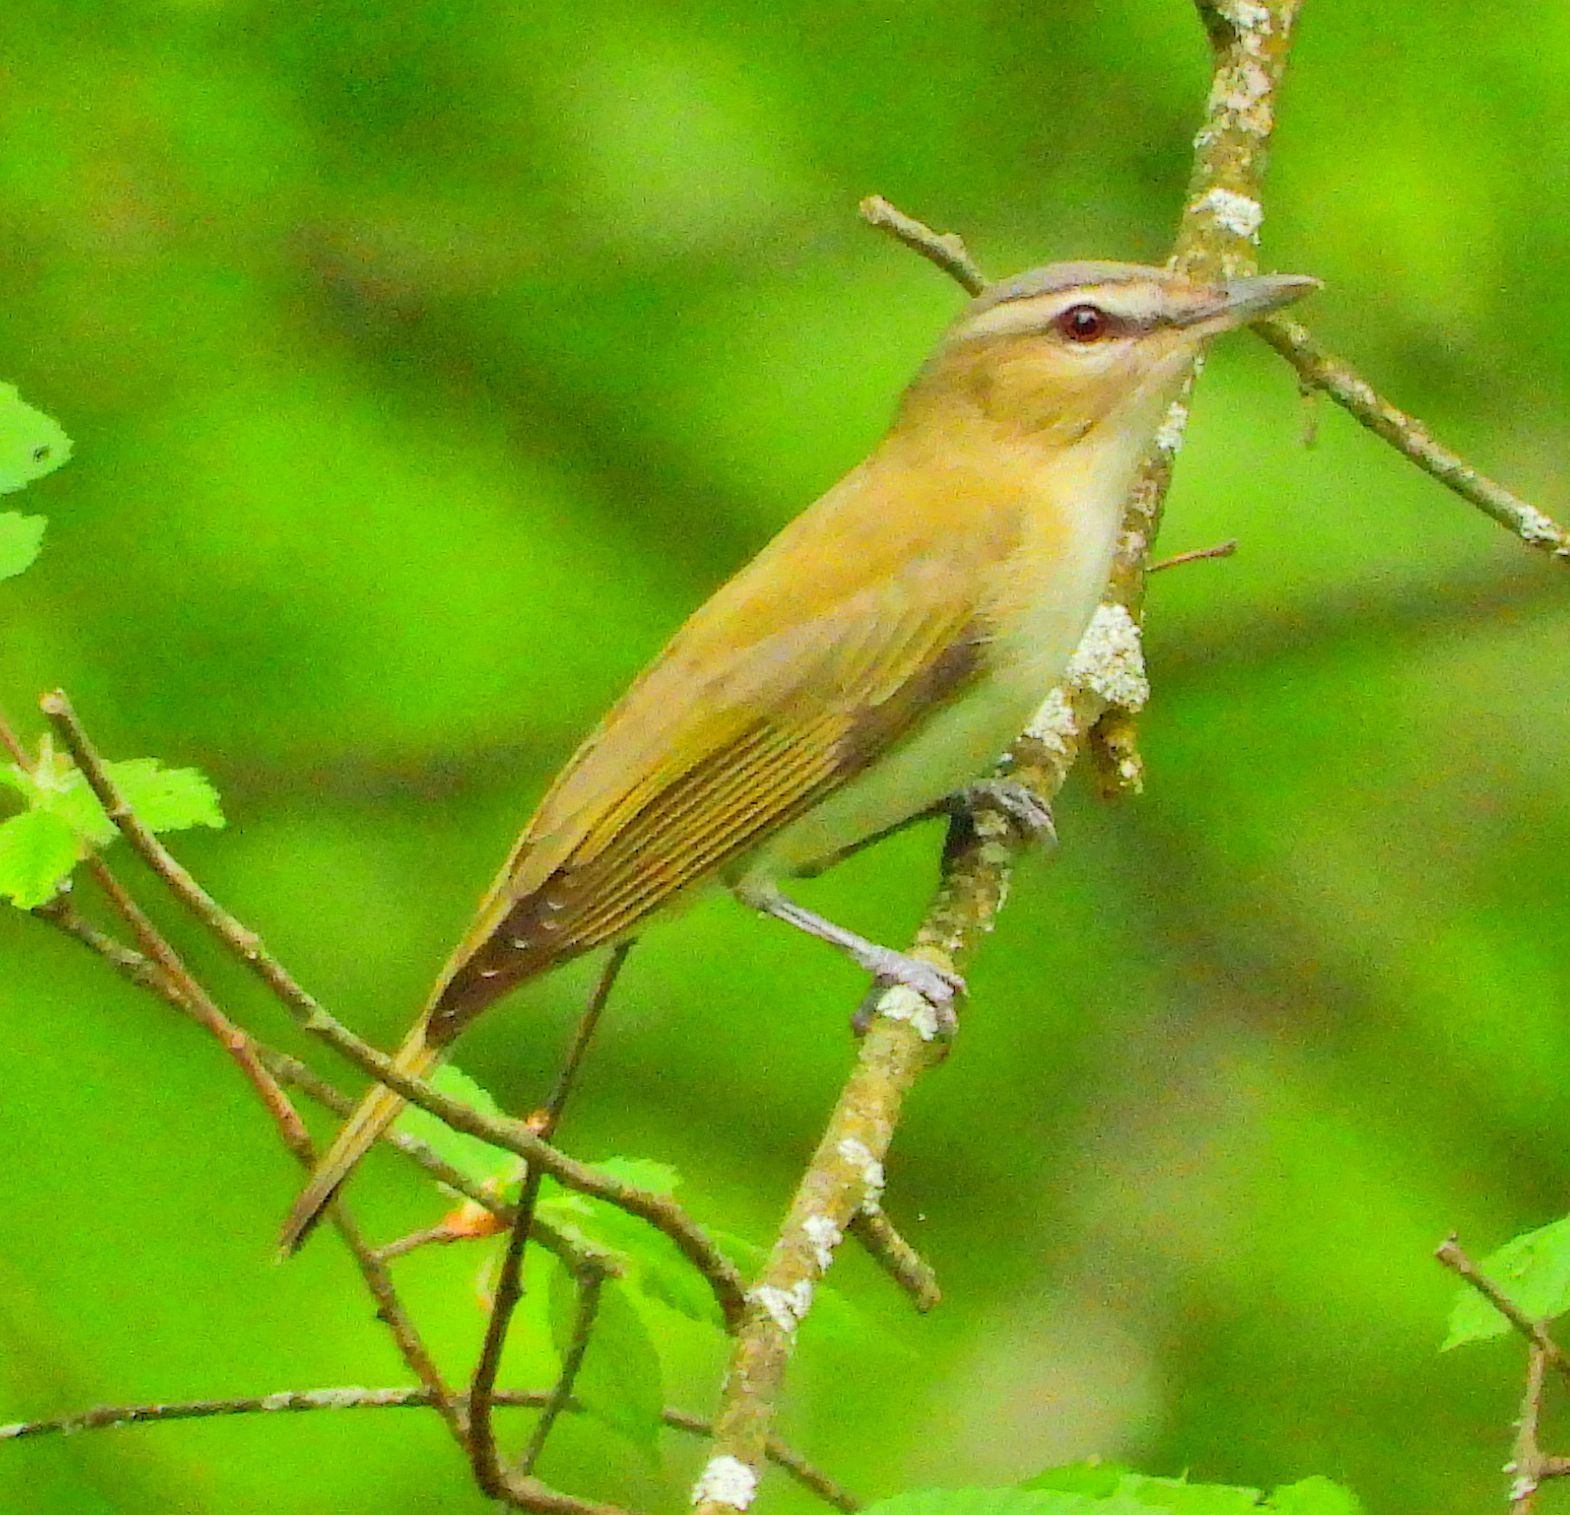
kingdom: Animalia
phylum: Chordata
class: Aves
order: Passeriformes
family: Vireonidae
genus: Vireo
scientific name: Vireo olivaceus
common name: Red-eyed vireo
